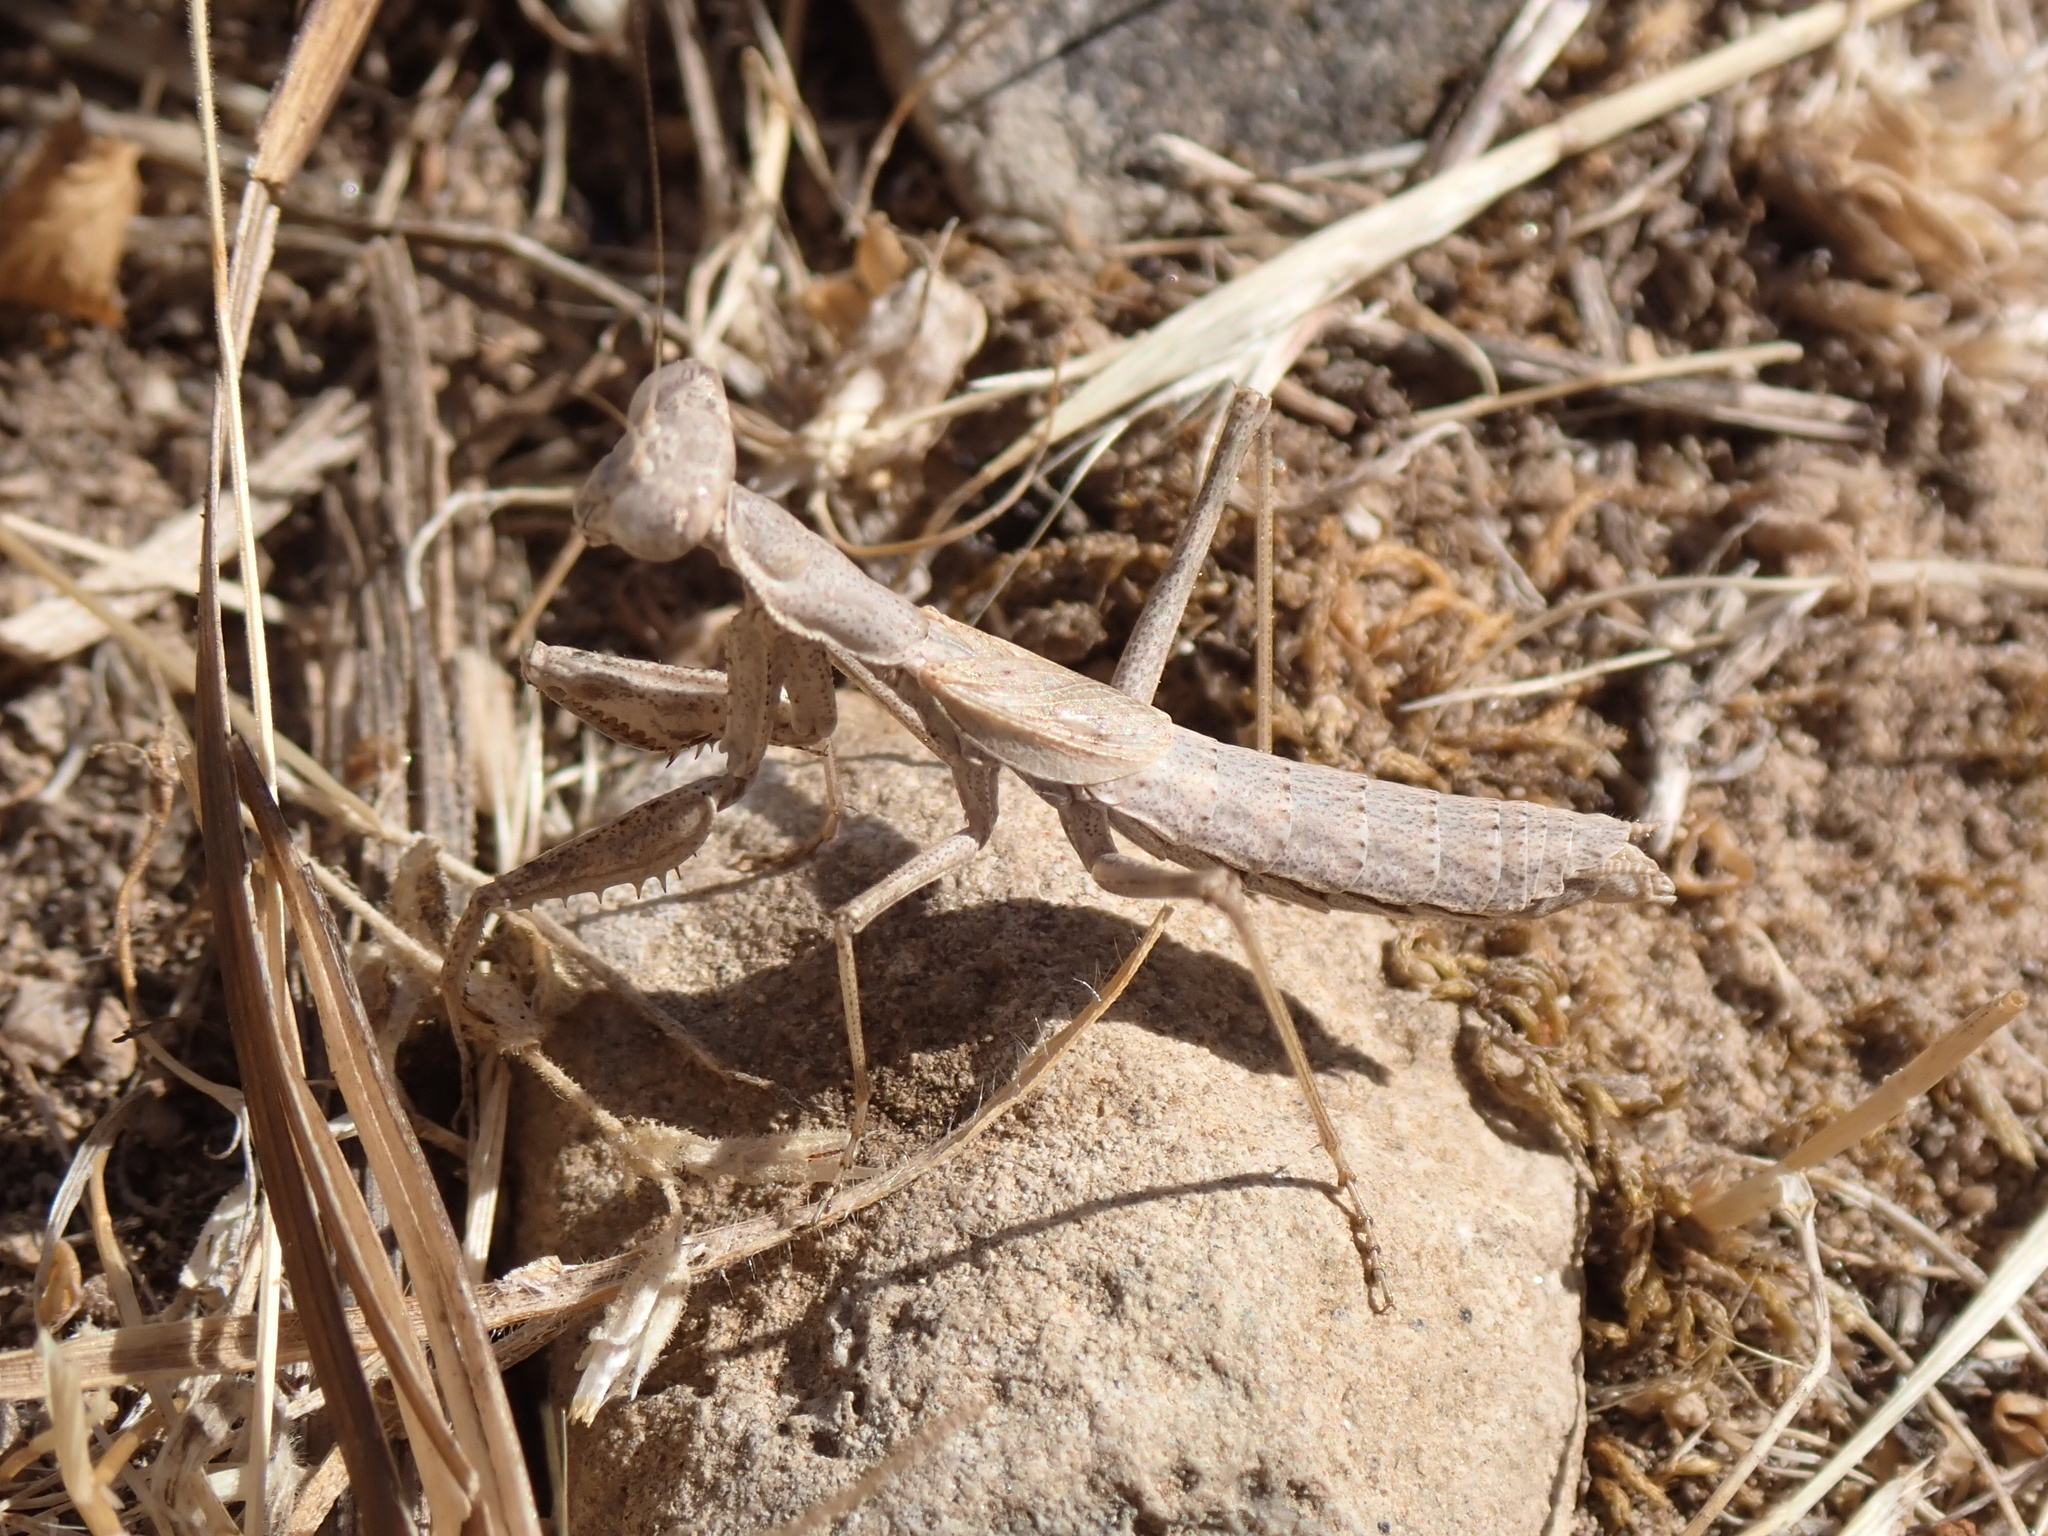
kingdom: Animalia
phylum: Arthropoda
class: Insecta
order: Mantodea
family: Amelidae
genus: Ameles
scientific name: Ameles decolor
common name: Dwarf mantis
